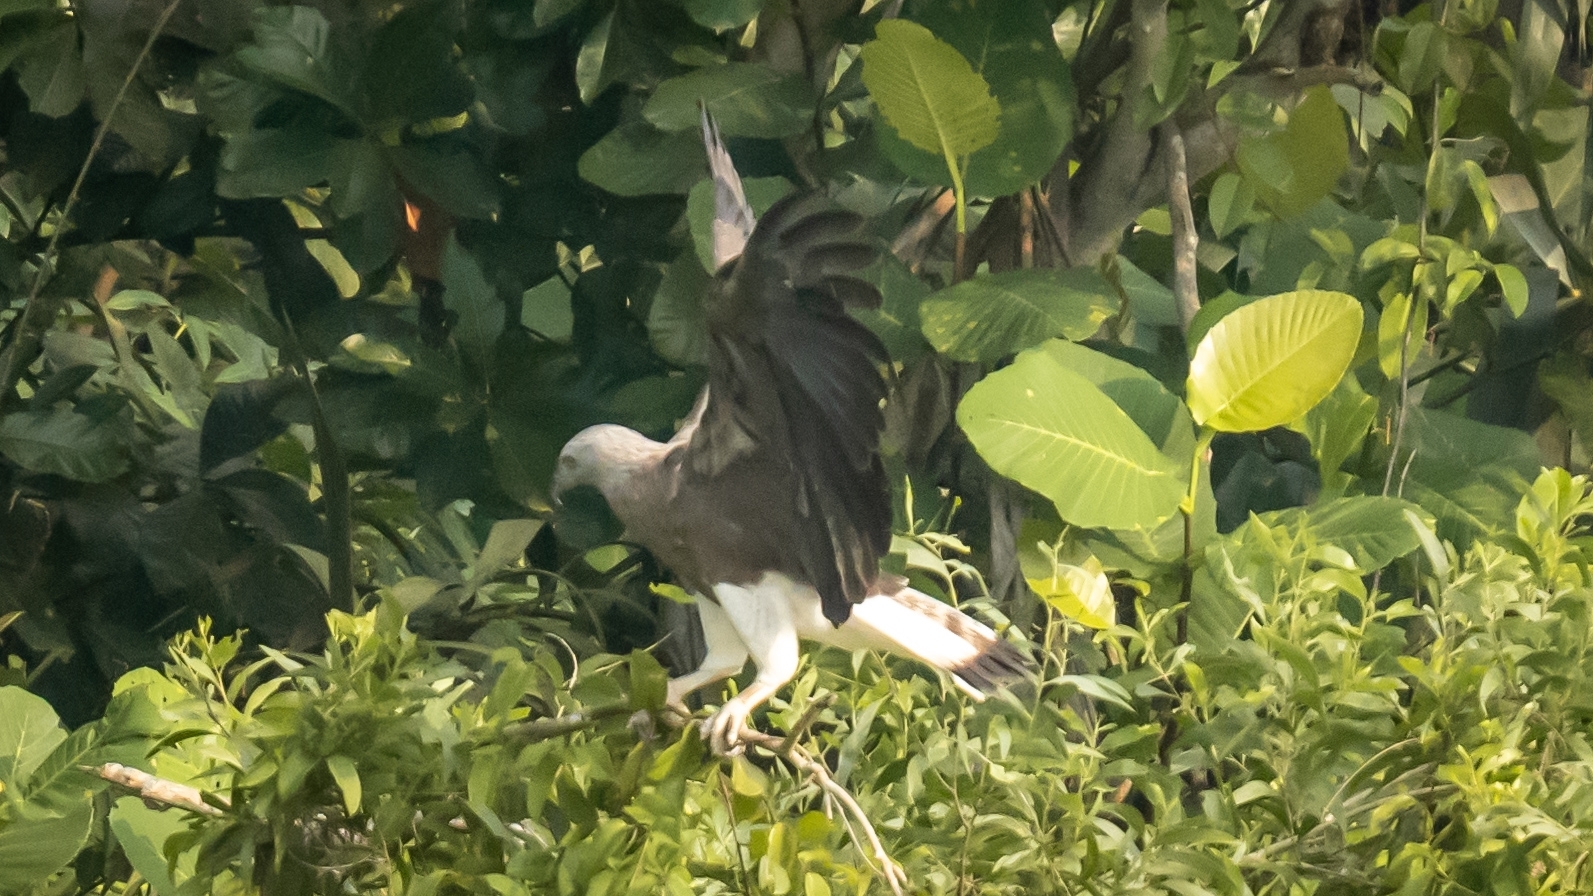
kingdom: Animalia
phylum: Chordata
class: Aves
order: Accipitriformes
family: Accipitridae
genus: Icthyophaga
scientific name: Icthyophaga ichthyaetus
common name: Grey-headed fish eagle
